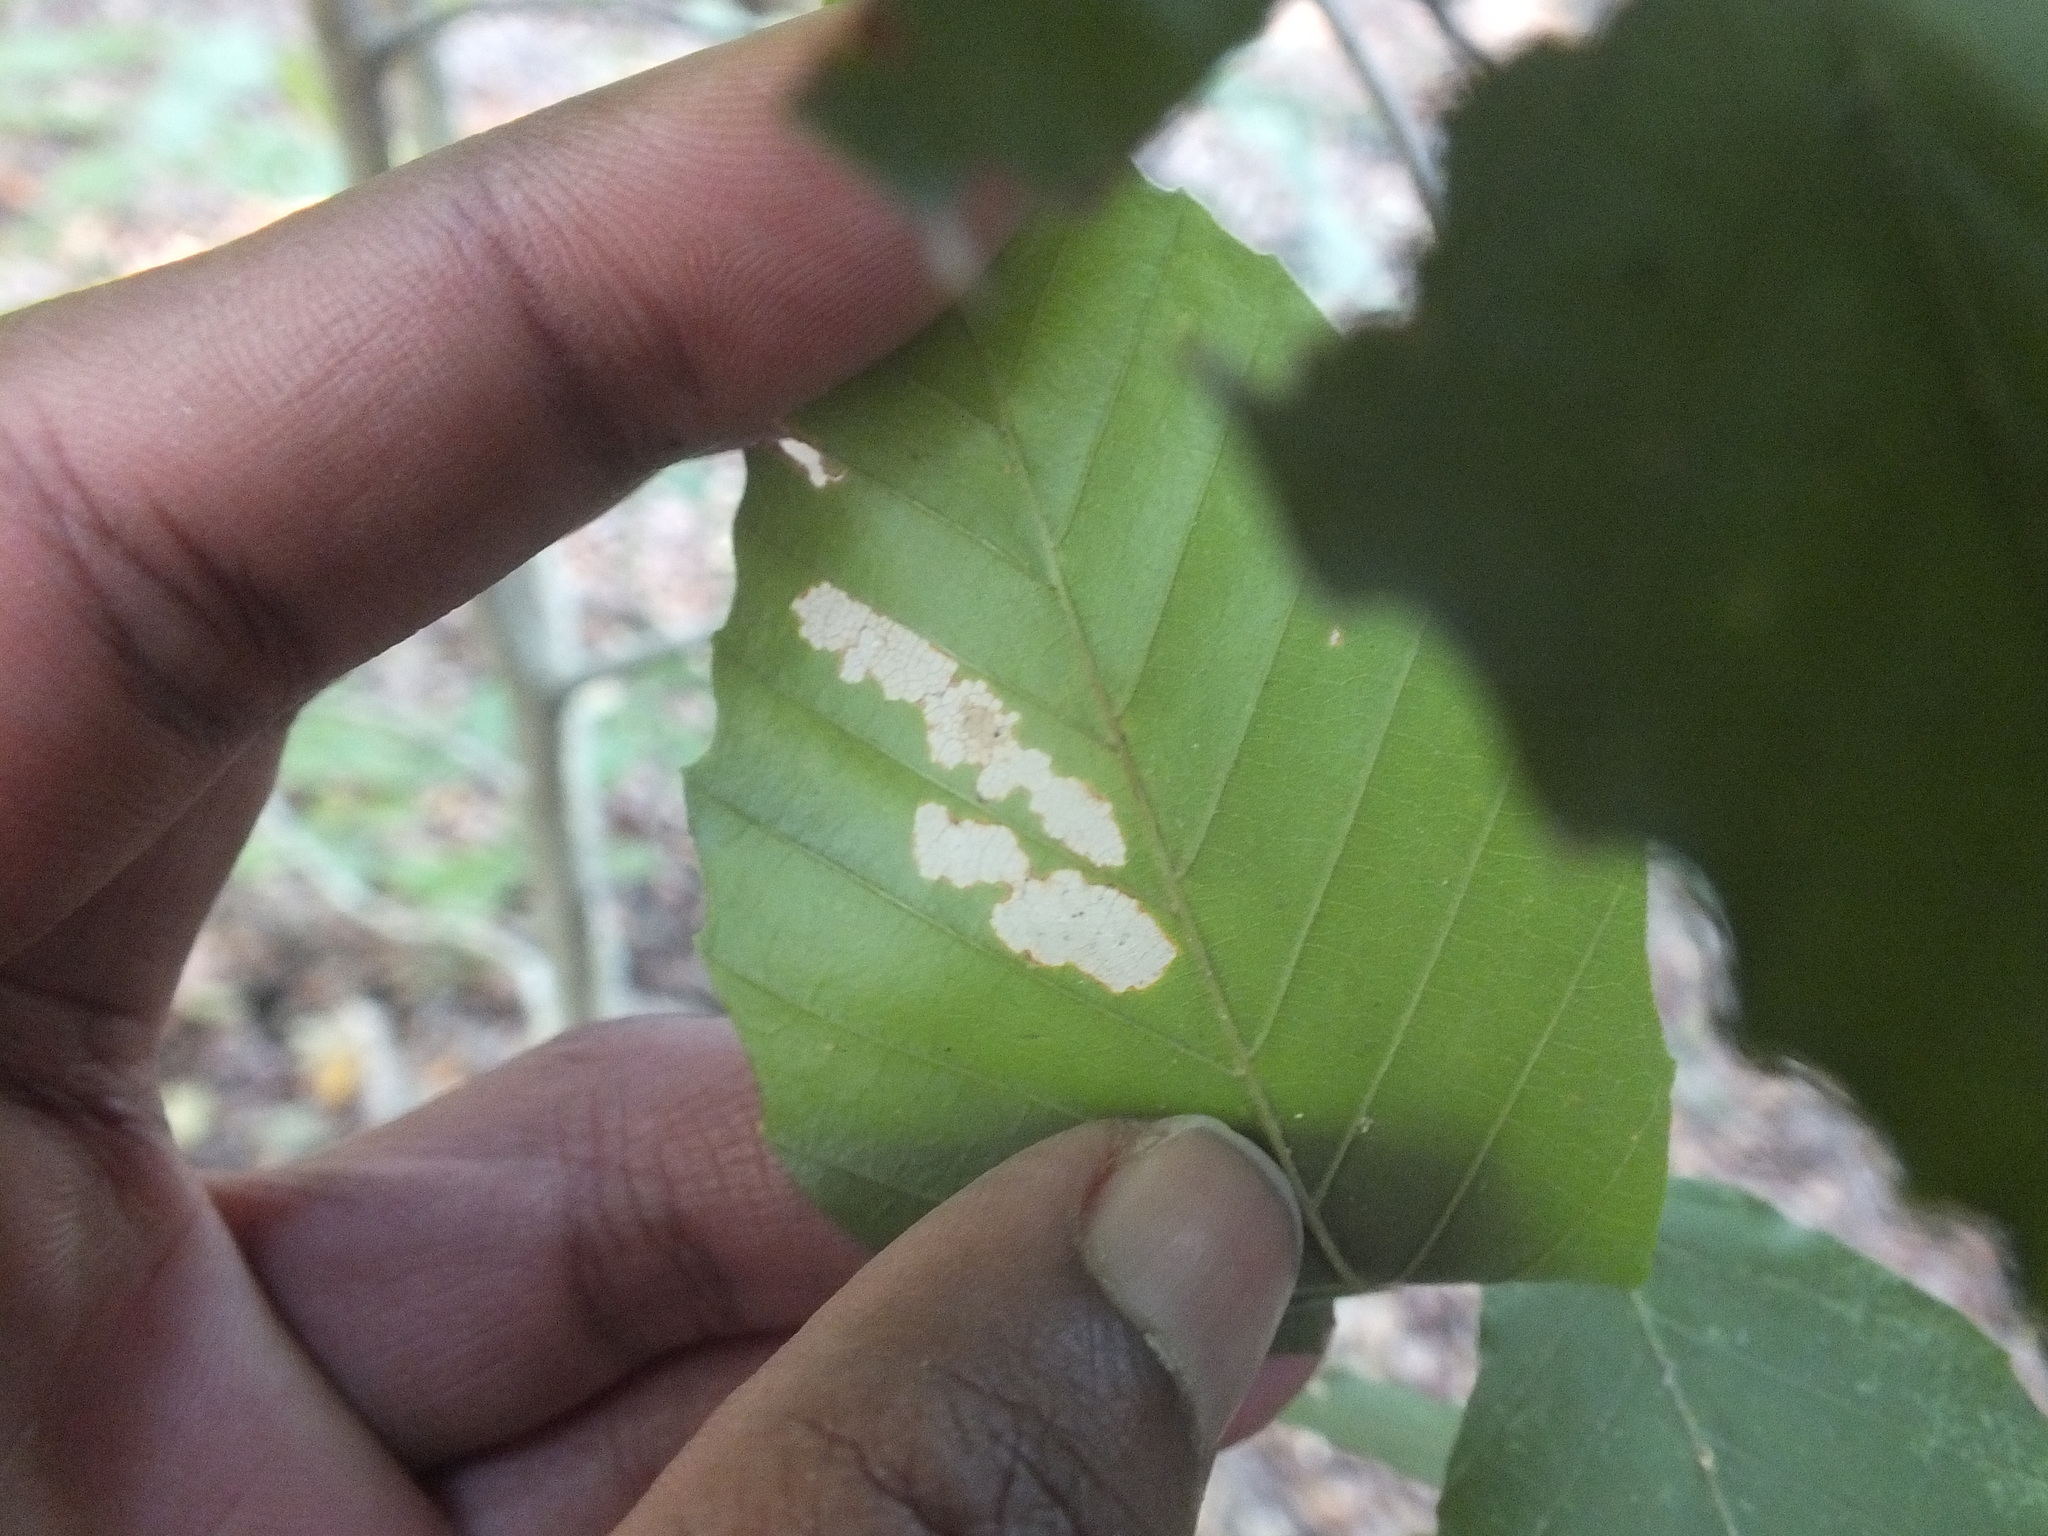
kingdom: Plantae
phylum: Tracheophyta
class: Magnoliopsida
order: Fagales
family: Fagaceae
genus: Fagus
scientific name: Fagus grandifolia
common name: American beech
